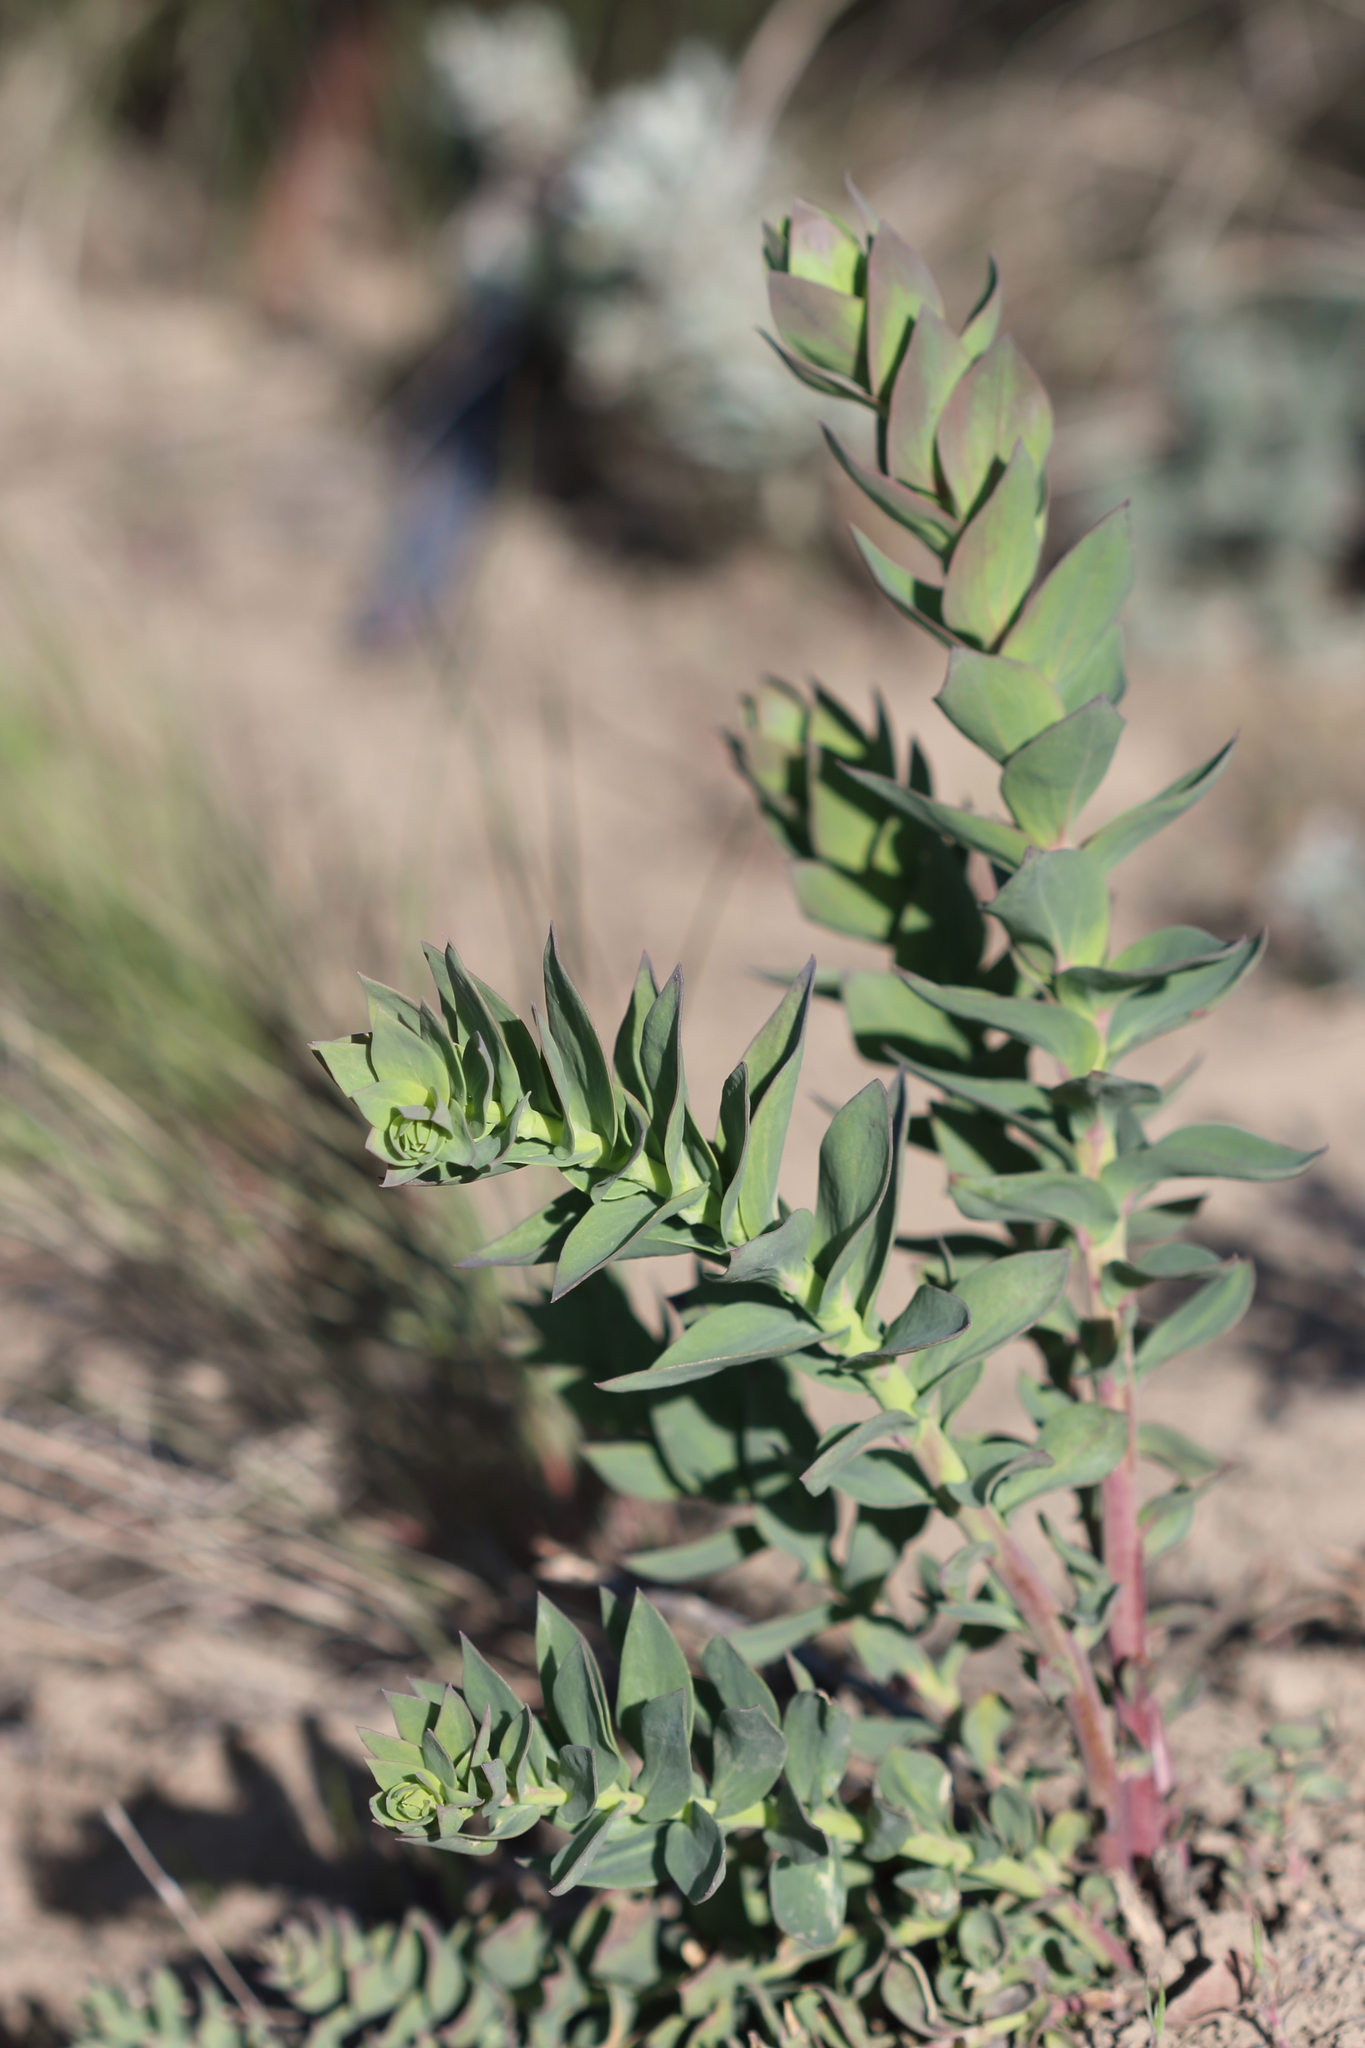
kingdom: Plantae
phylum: Tracheophyta
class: Magnoliopsida
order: Lamiales
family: Plantaginaceae
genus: Linaria
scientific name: Linaria dalmatica
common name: Dalmatian toadflax
